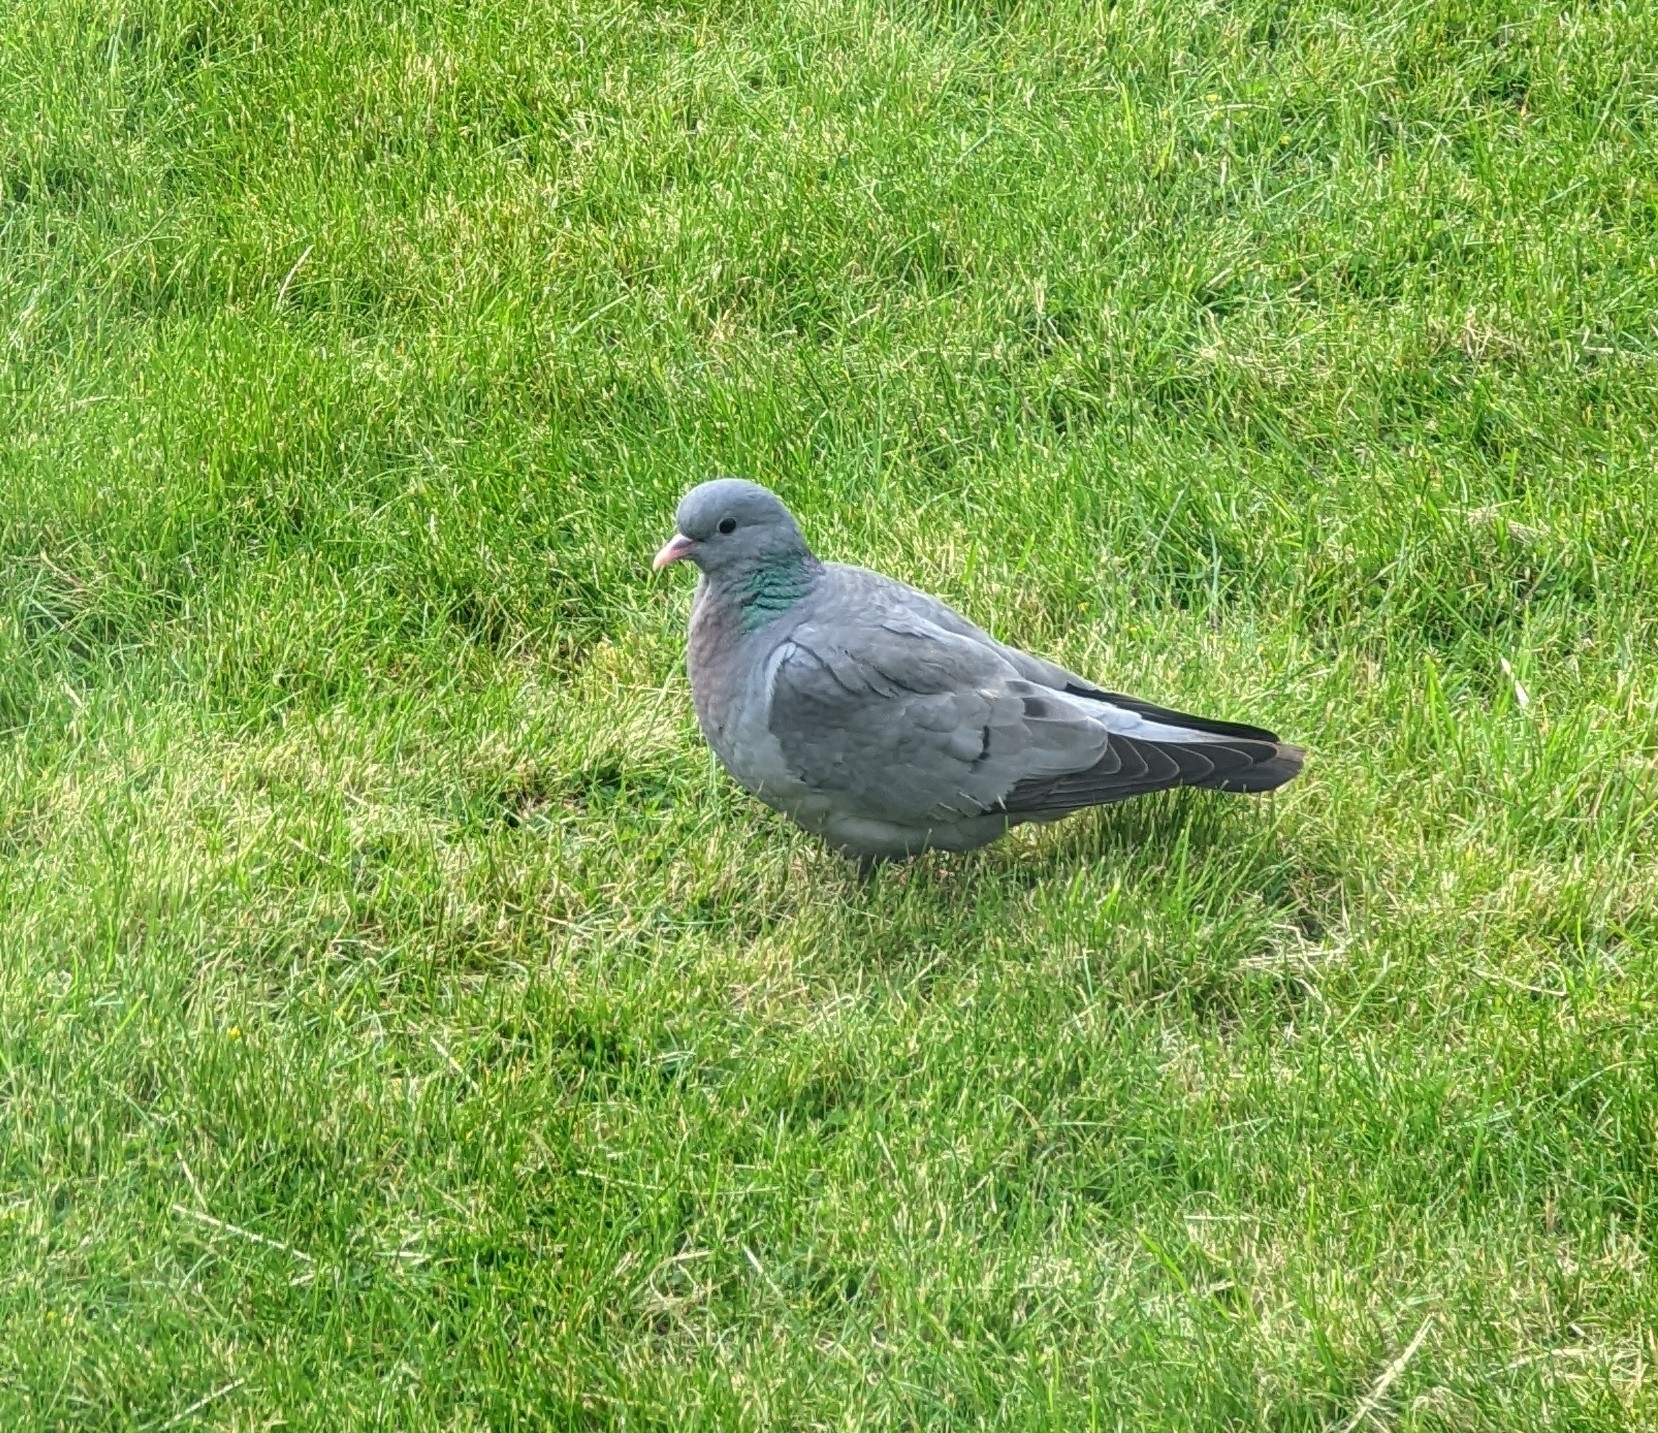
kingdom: Animalia
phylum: Chordata
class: Aves
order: Columbiformes
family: Columbidae
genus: Columba
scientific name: Columba oenas
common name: Stock dove
